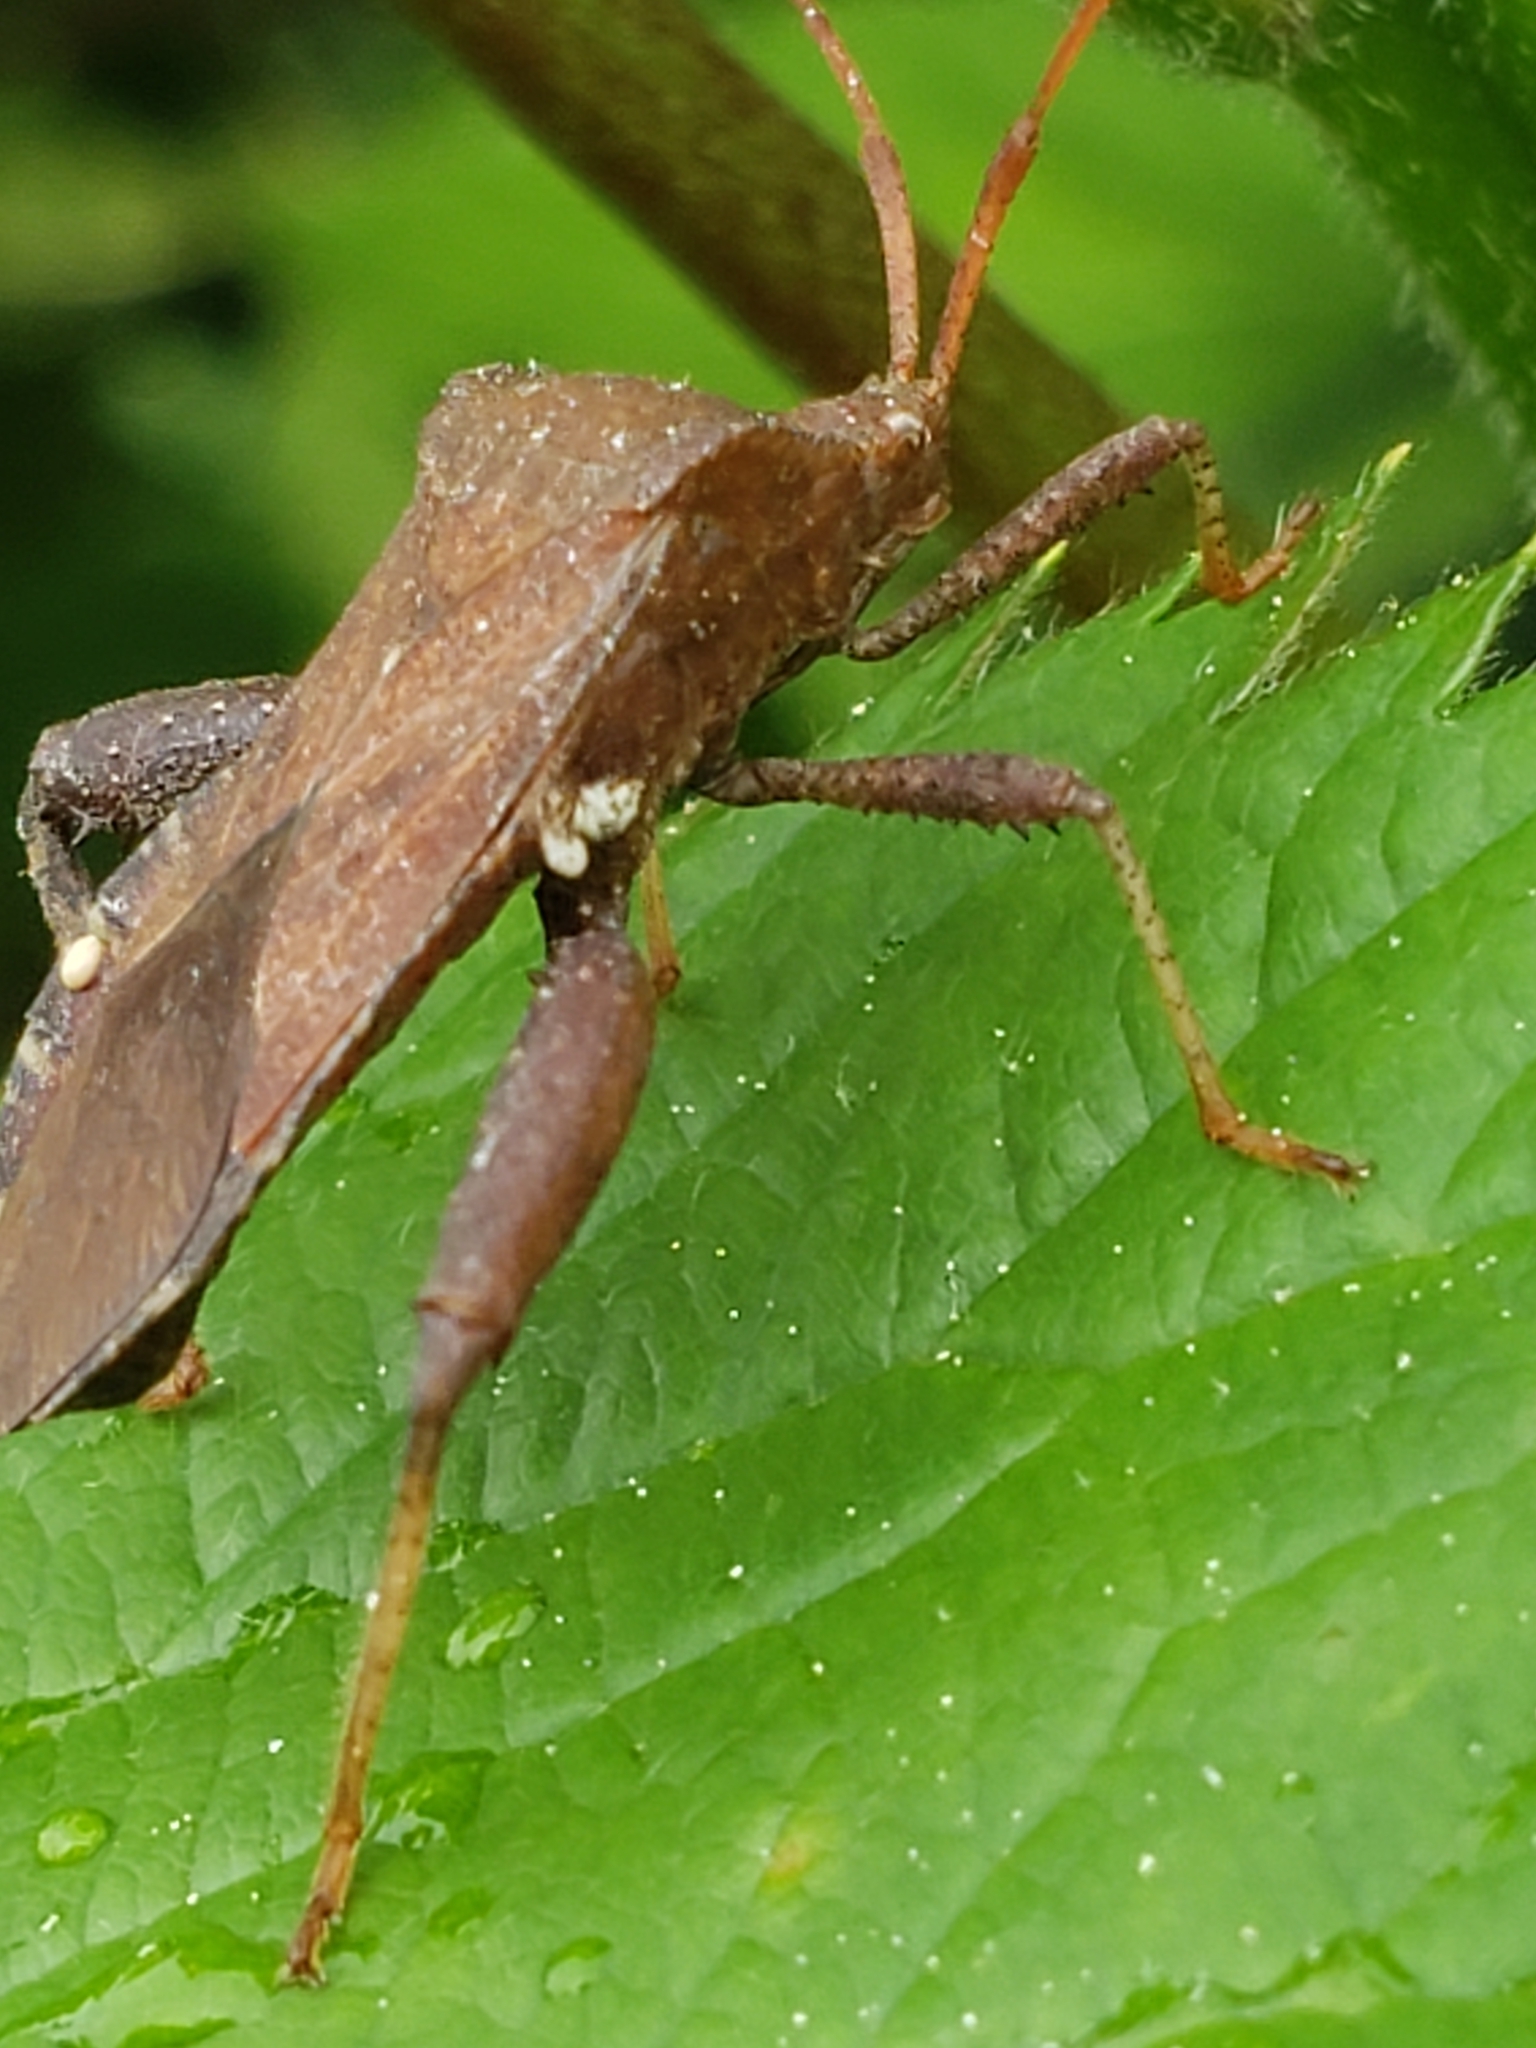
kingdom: Animalia
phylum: Arthropoda
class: Insecta
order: Hemiptera
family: Coreidae
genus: Euthochtha
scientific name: Euthochtha galeator
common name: Helmeted squash bug
